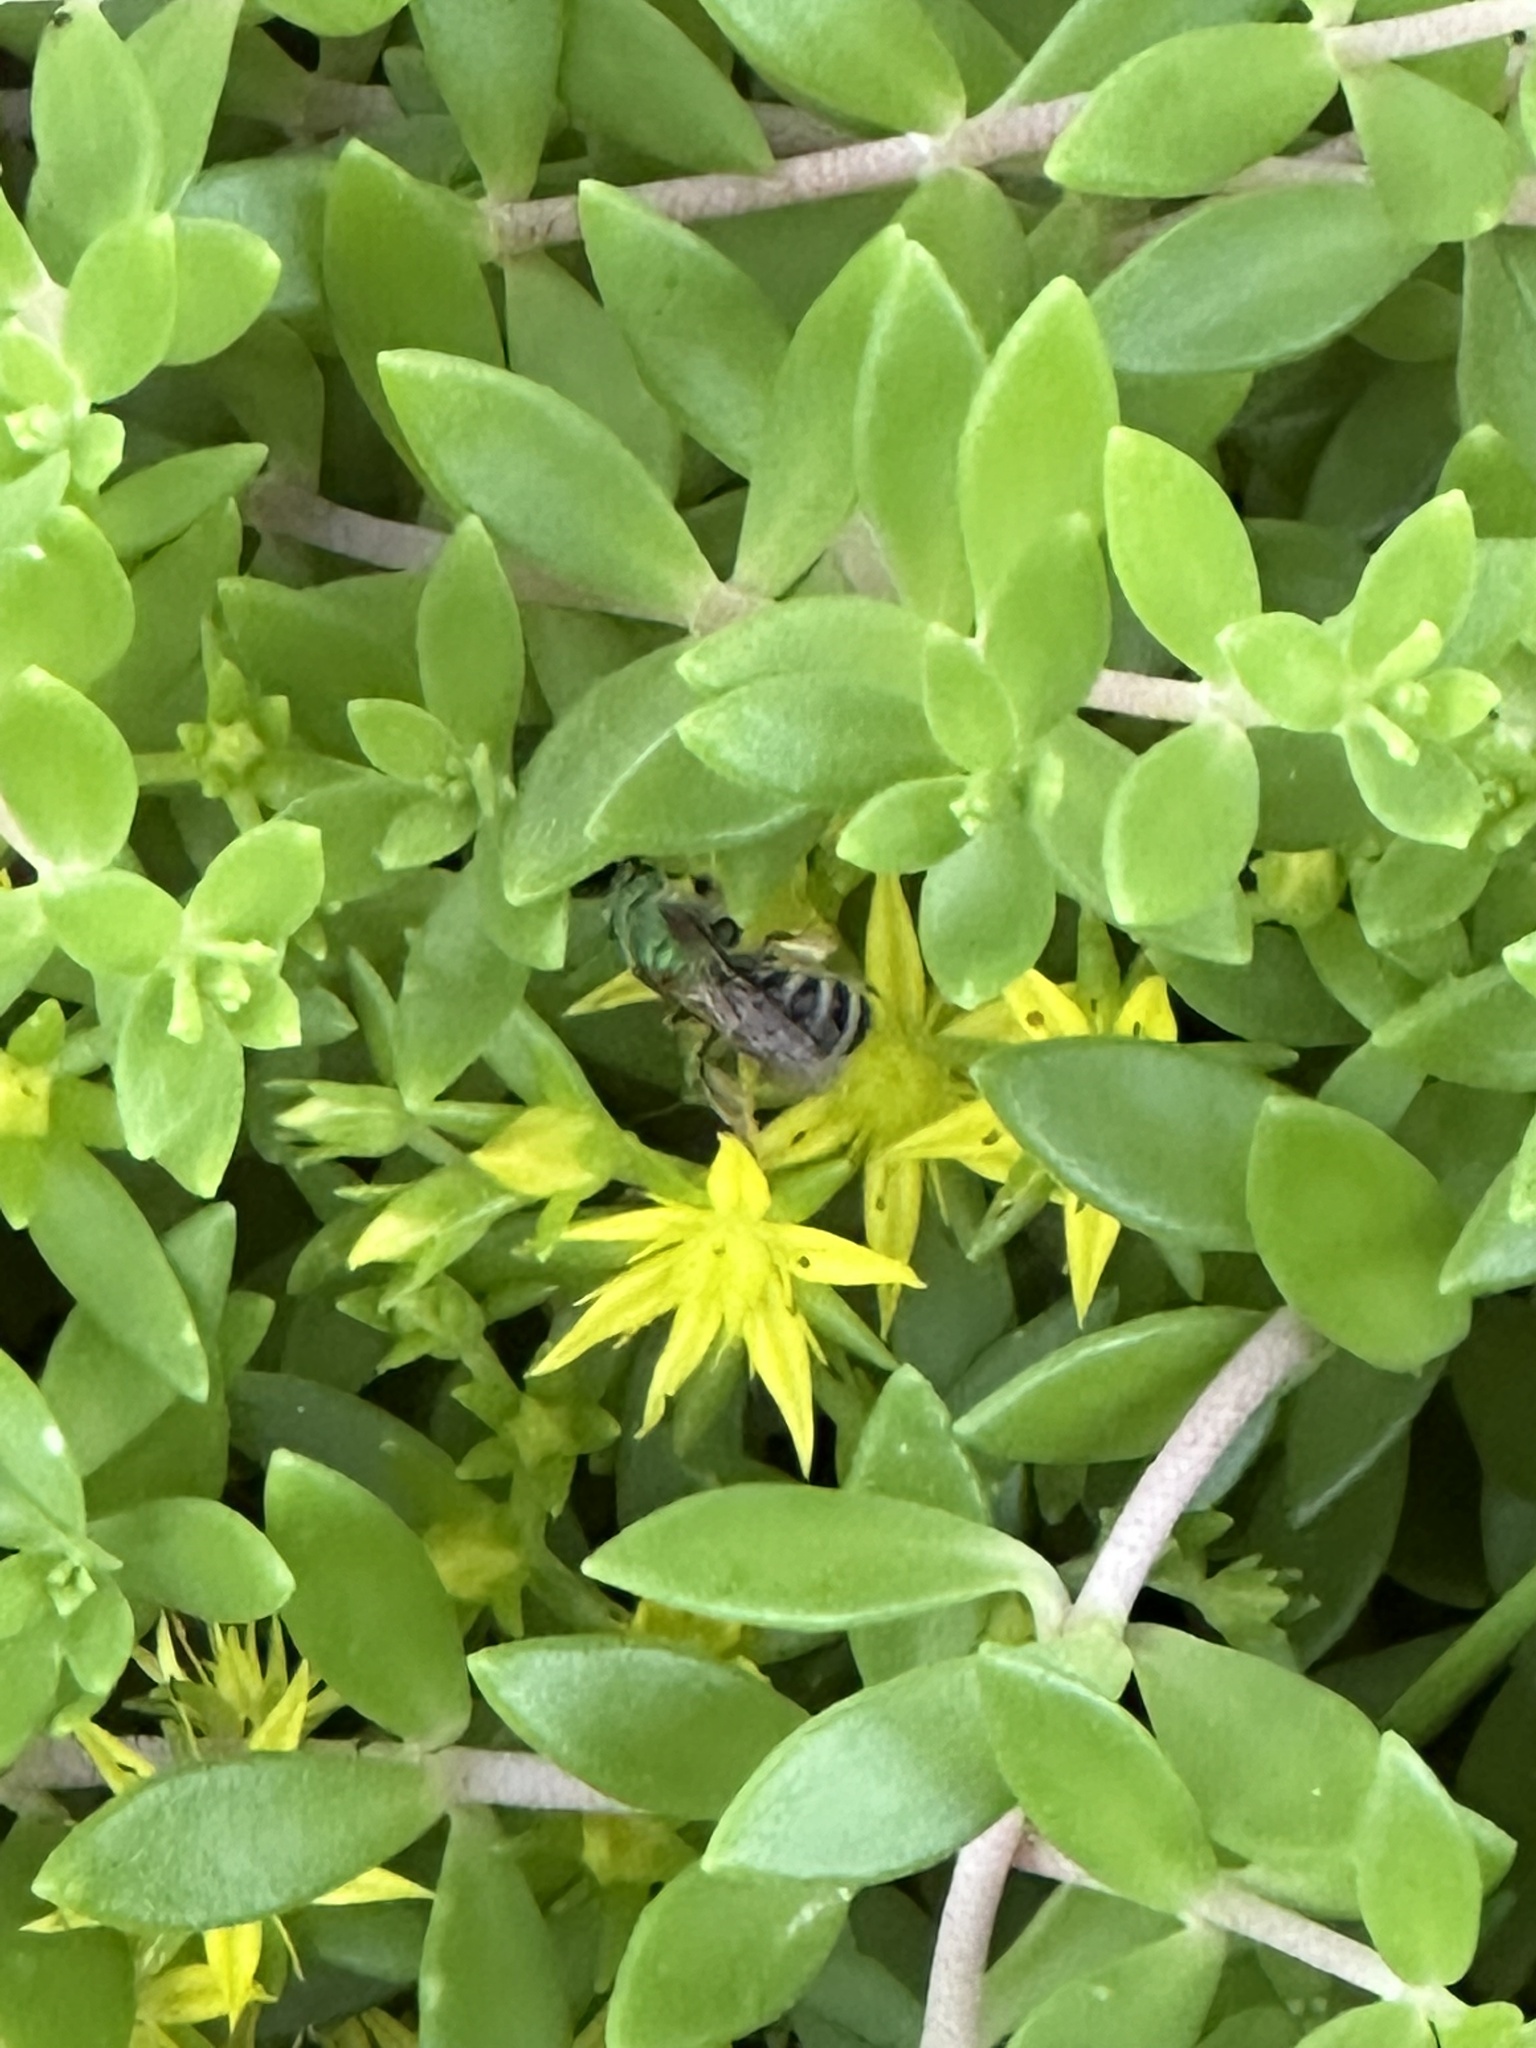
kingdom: Animalia
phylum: Arthropoda
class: Insecta
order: Hymenoptera
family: Halictidae
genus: Agapostemon
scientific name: Agapostemon virescens
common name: Bicolored striped sweat bee
